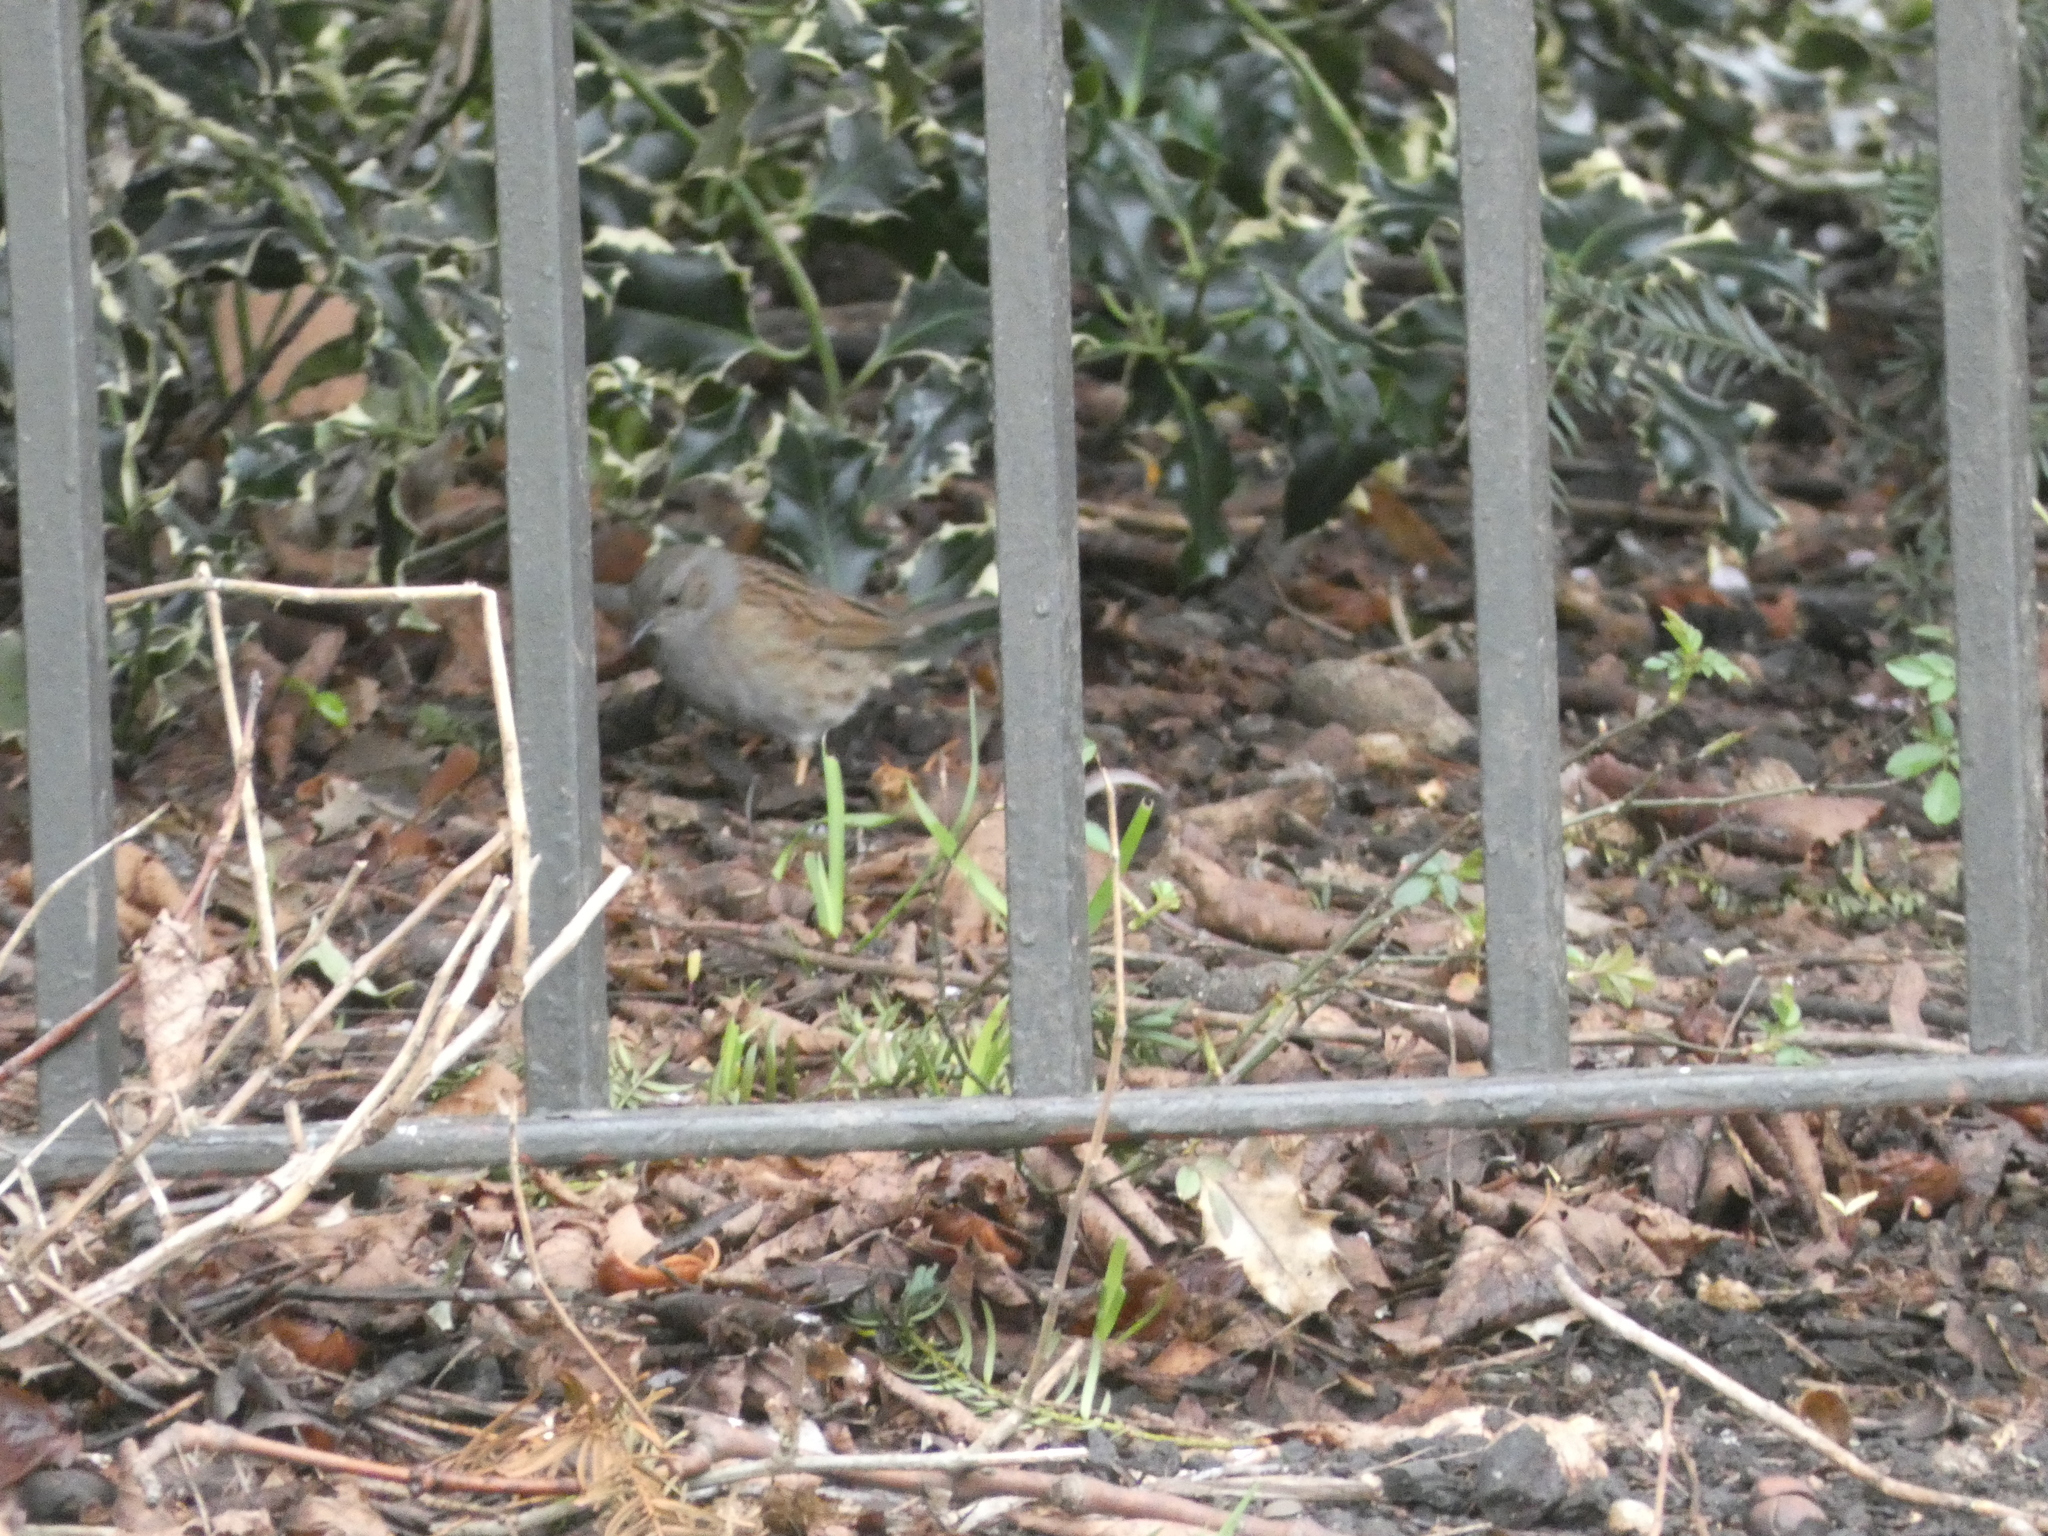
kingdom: Animalia
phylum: Chordata
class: Aves
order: Passeriformes
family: Prunellidae
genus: Prunella
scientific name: Prunella modularis
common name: Dunnock
